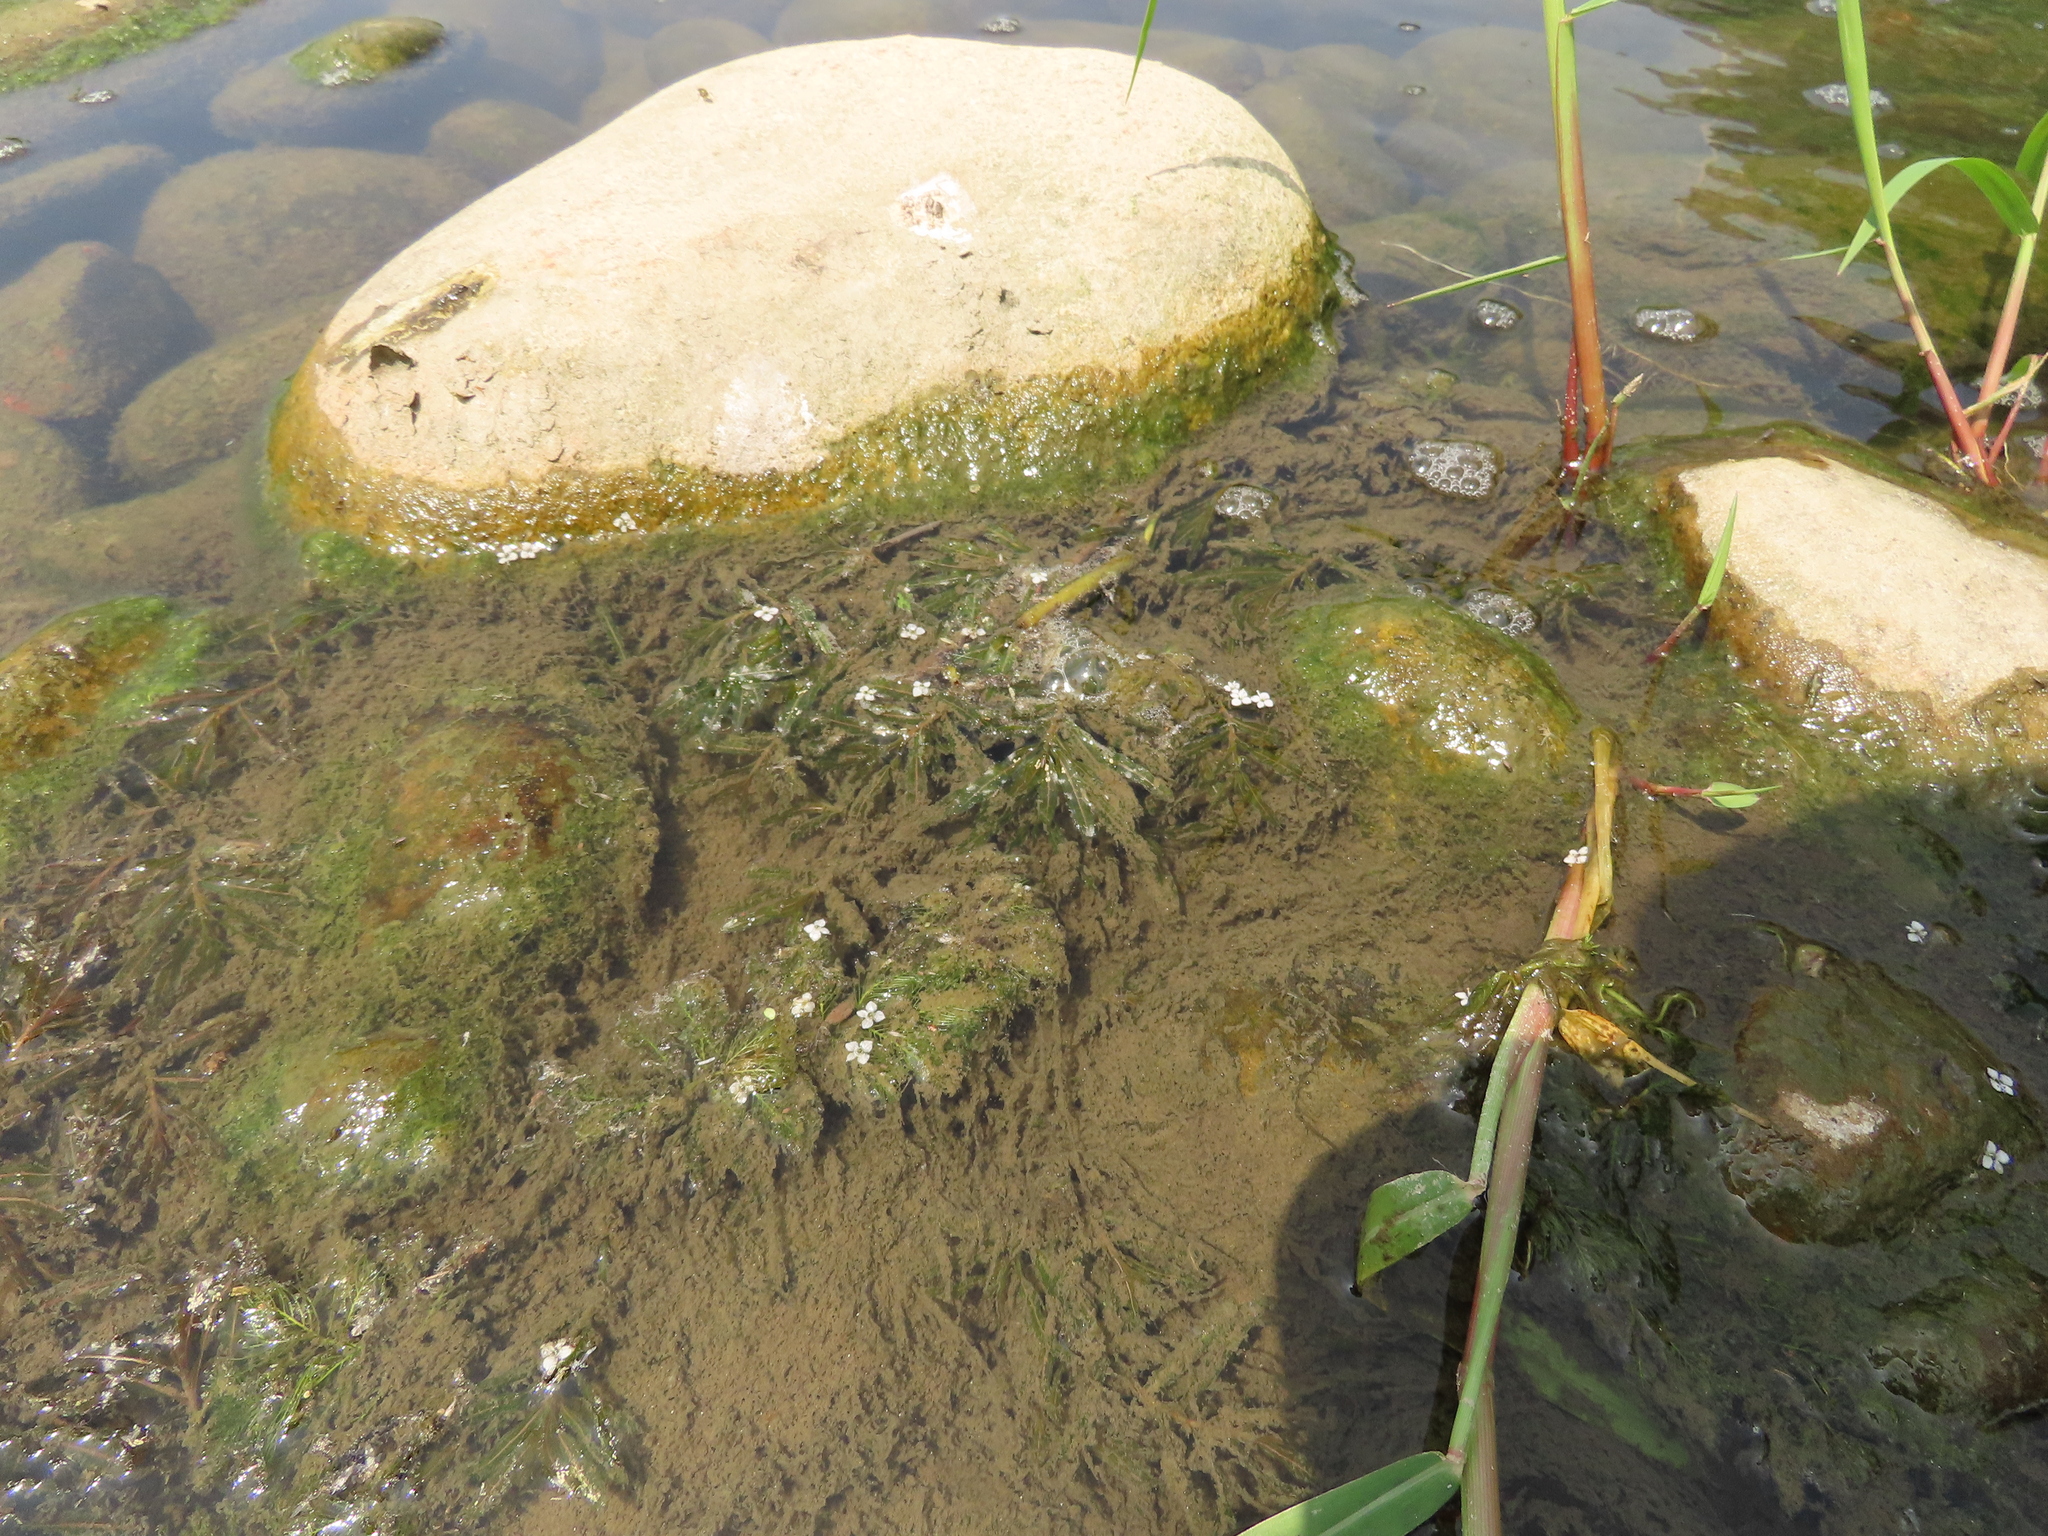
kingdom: Plantae
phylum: Tracheophyta
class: Liliopsida
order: Alismatales
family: Potamogetonaceae
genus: Potamogeton
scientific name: Potamogeton crispus
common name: Curled pondweed
